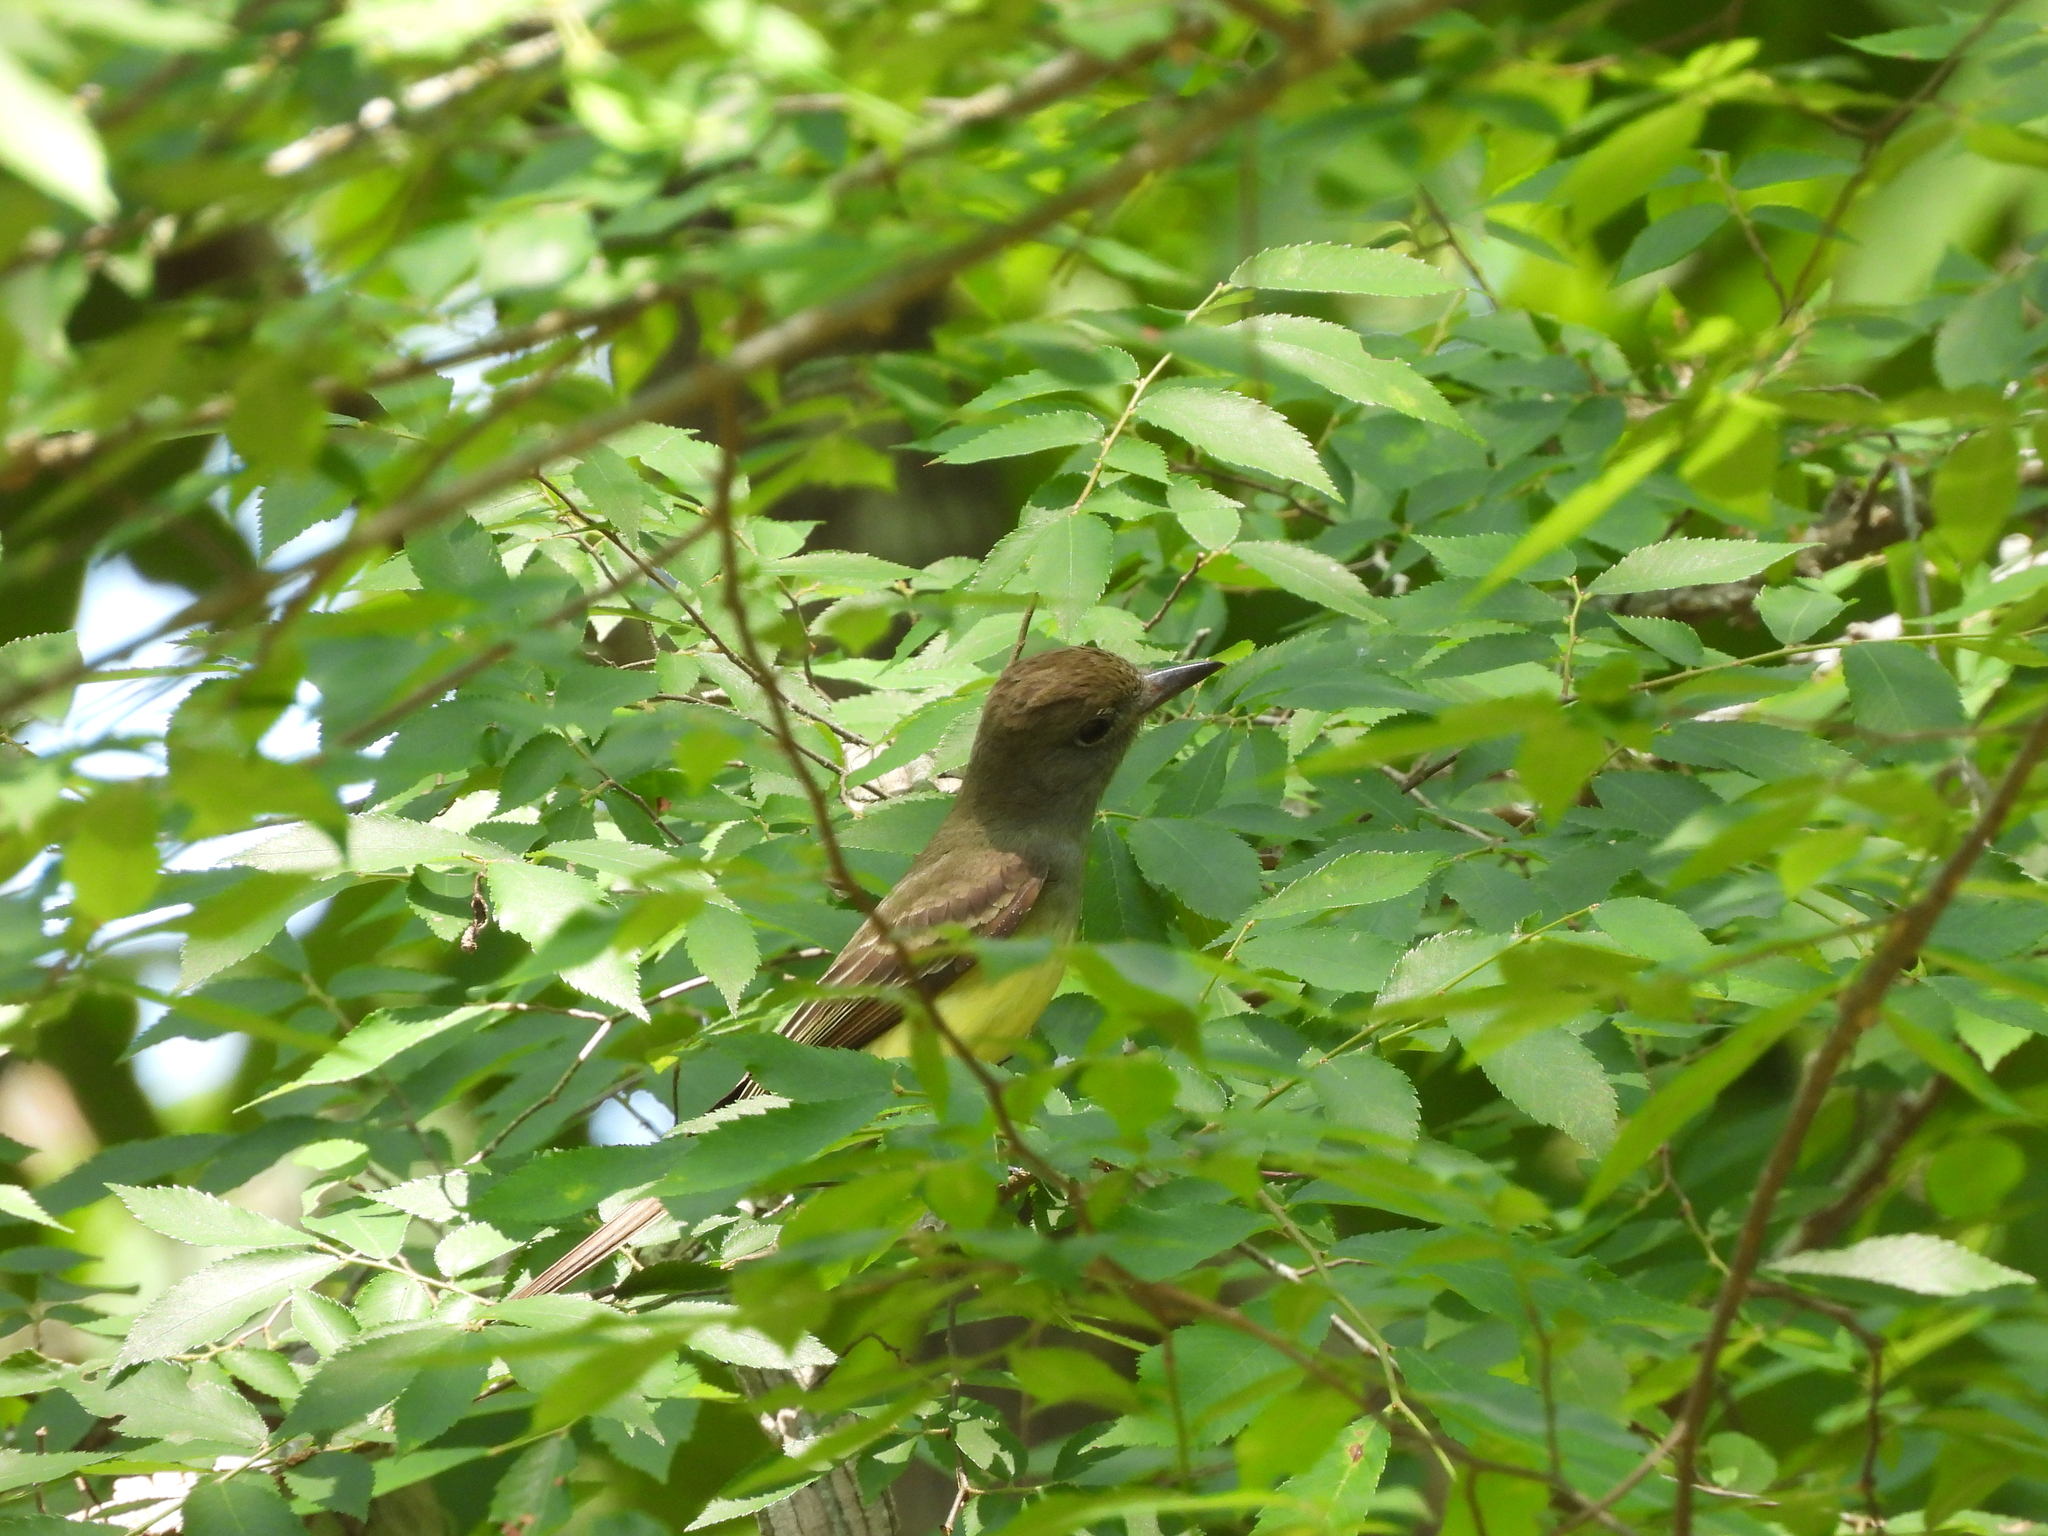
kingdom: Animalia
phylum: Chordata
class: Aves
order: Passeriformes
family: Tyrannidae
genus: Myiarchus
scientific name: Myiarchus crinitus
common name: Great crested flycatcher
